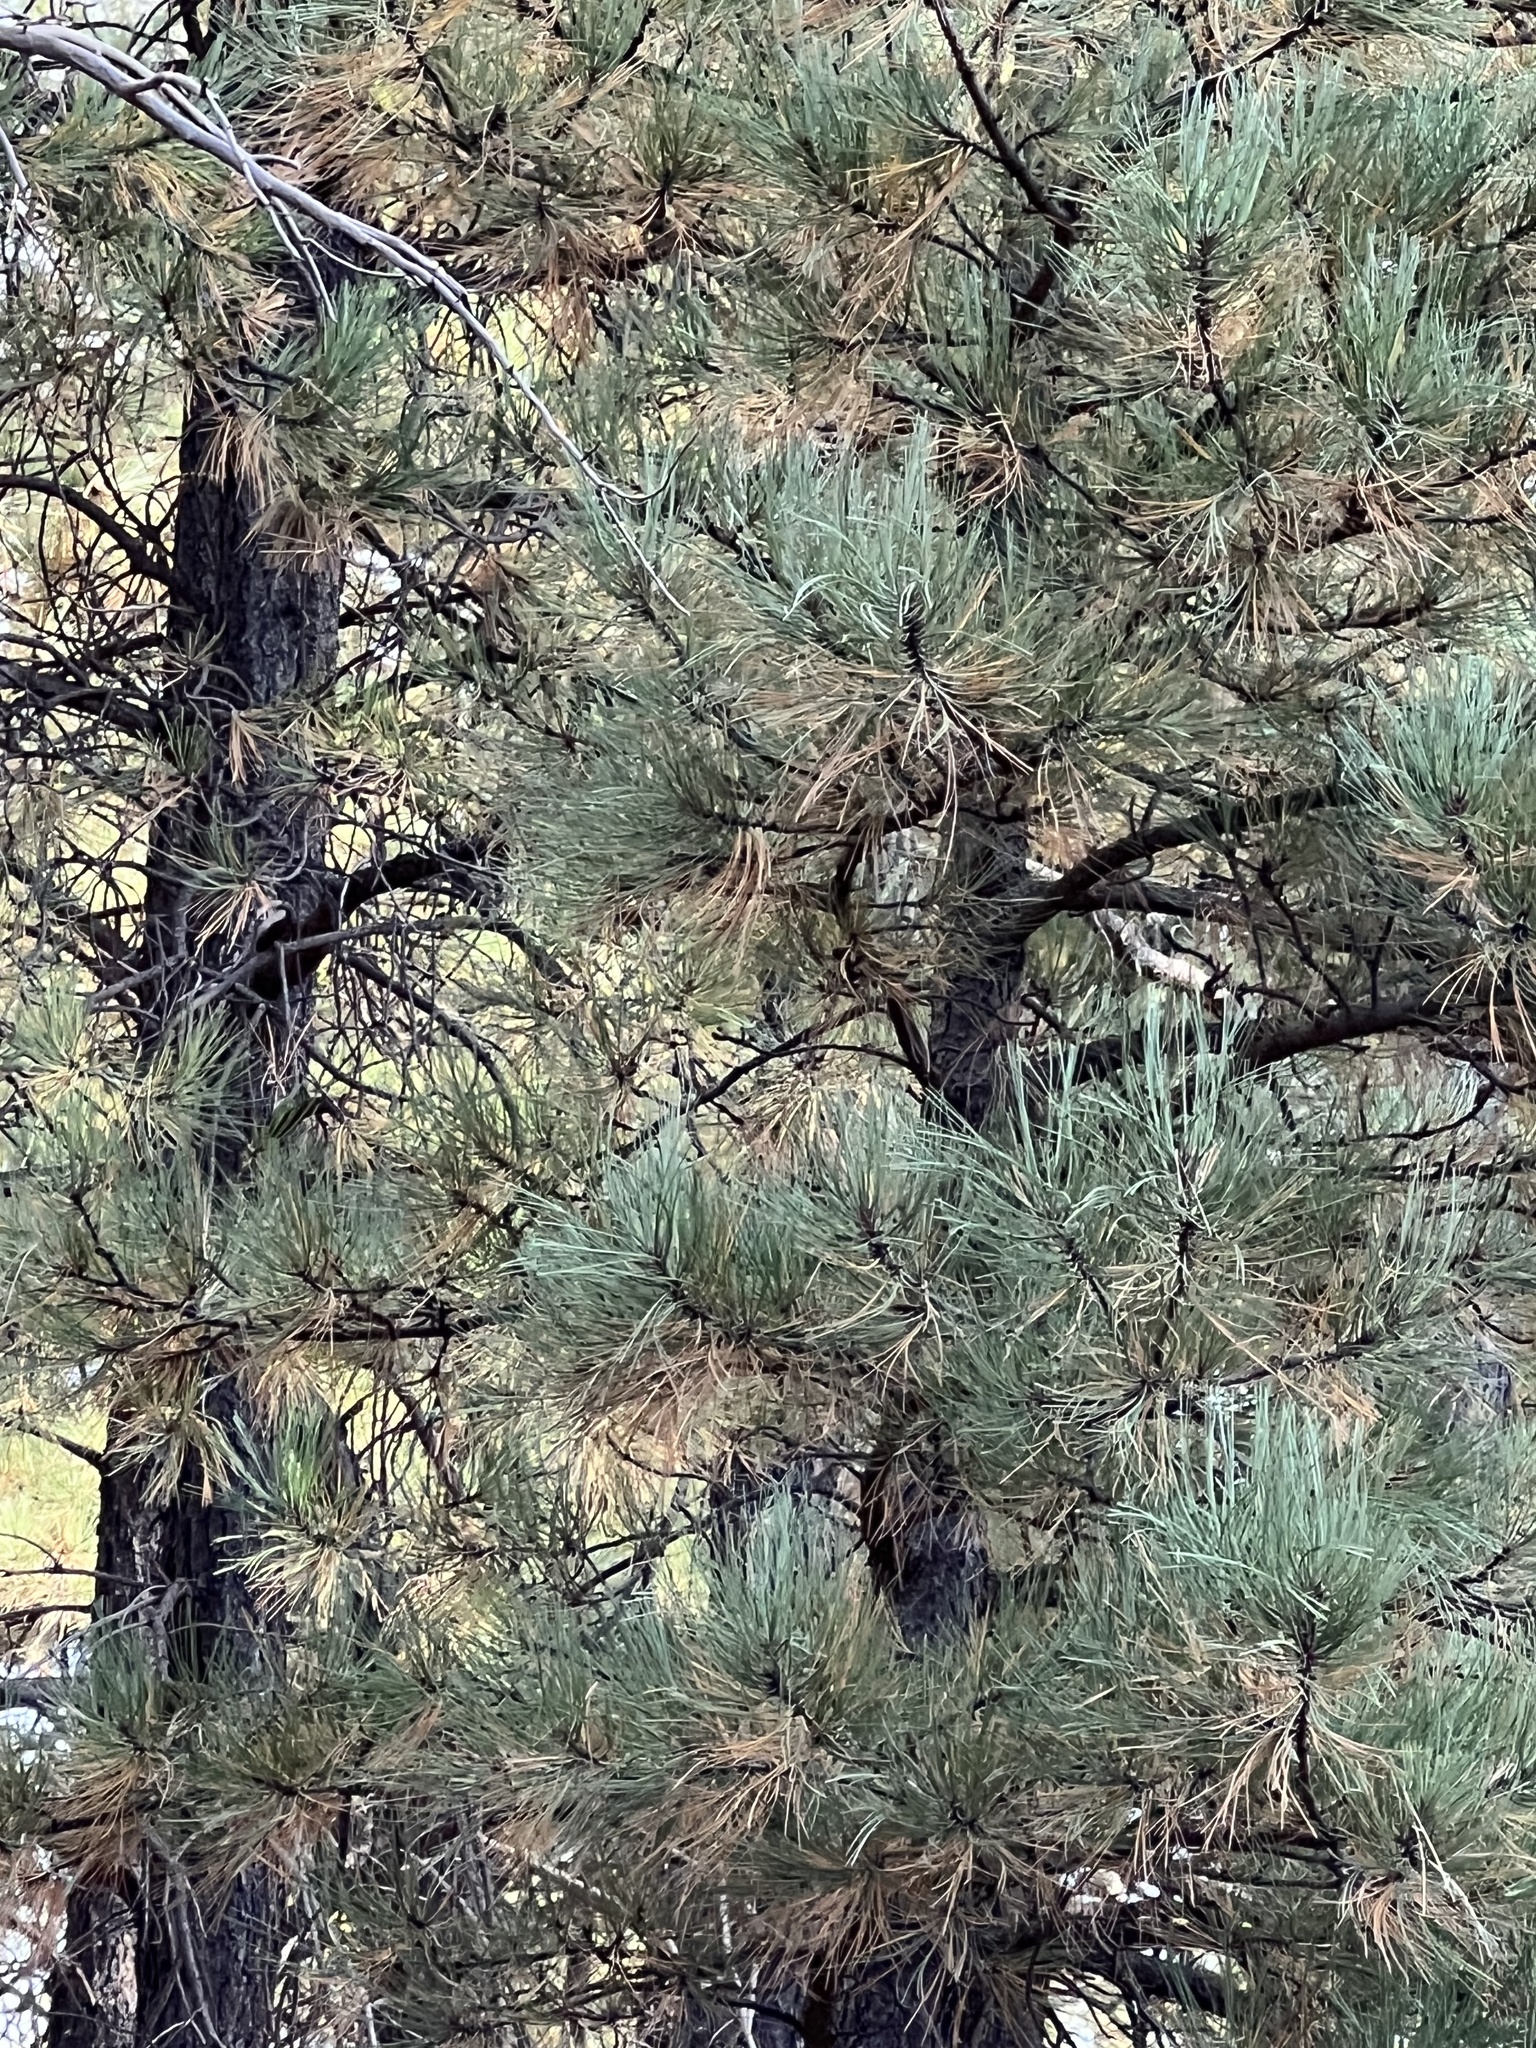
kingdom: Plantae
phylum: Tracheophyta
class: Pinopsida
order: Pinales
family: Pinaceae
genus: Pinus
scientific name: Pinus ponderosa
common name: Western yellow-pine
